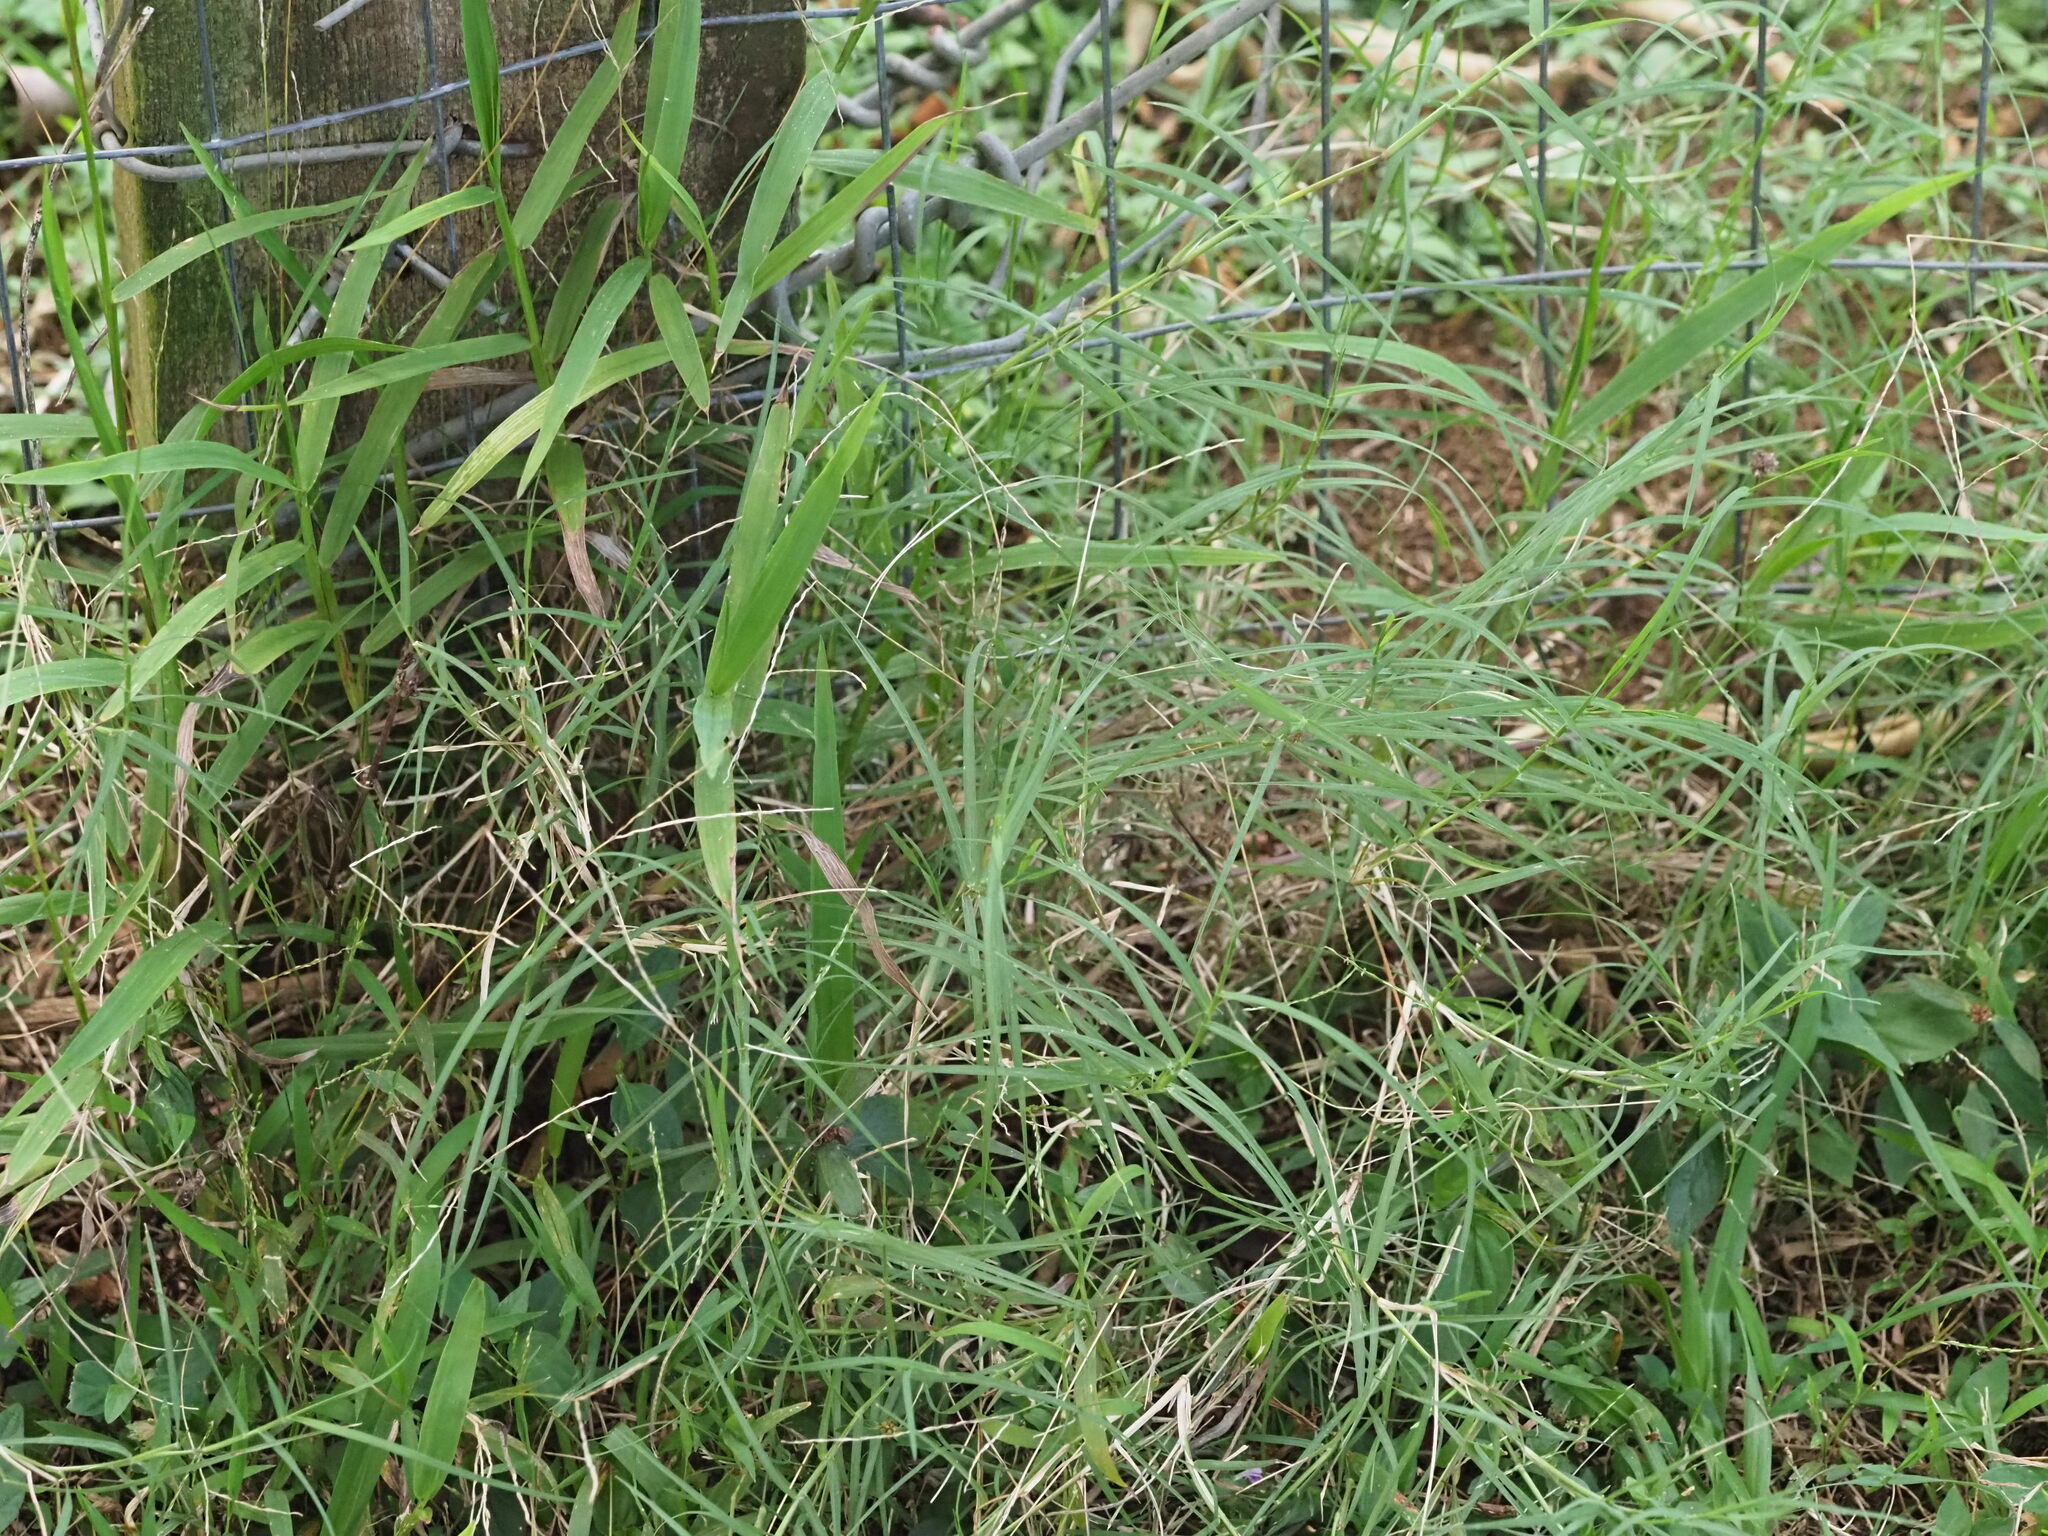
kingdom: Plantae
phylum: Tracheophyta
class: Liliopsida
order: Poales
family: Poaceae
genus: Cynodon
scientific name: Cynodon dactylon
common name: Bermuda grass
